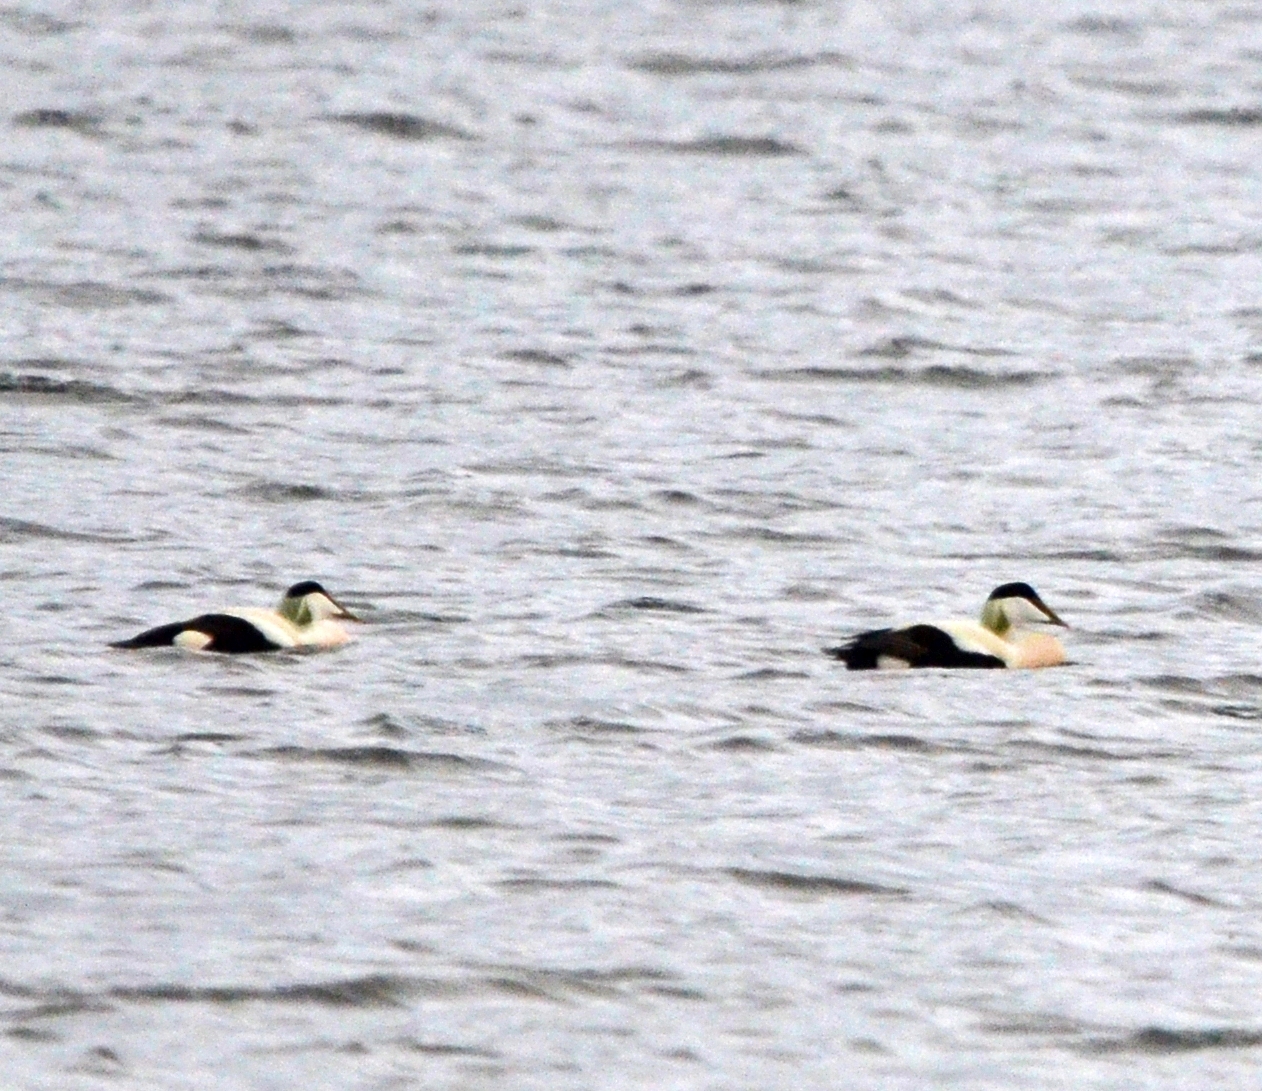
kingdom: Animalia
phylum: Chordata
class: Aves
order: Anseriformes
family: Anatidae
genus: Somateria
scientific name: Somateria mollissima
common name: Common eider
